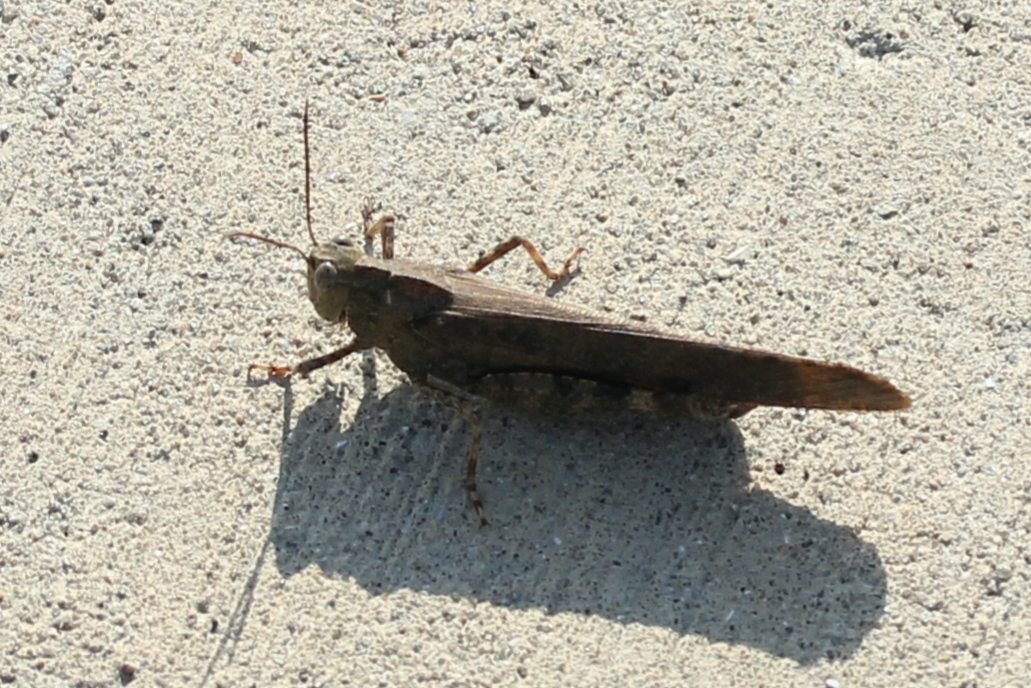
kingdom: Animalia
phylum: Arthropoda
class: Insecta
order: Orthoptera
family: Acrididae
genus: Dissosteira
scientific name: Dissosteira carolina
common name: Carolina grasshopper
